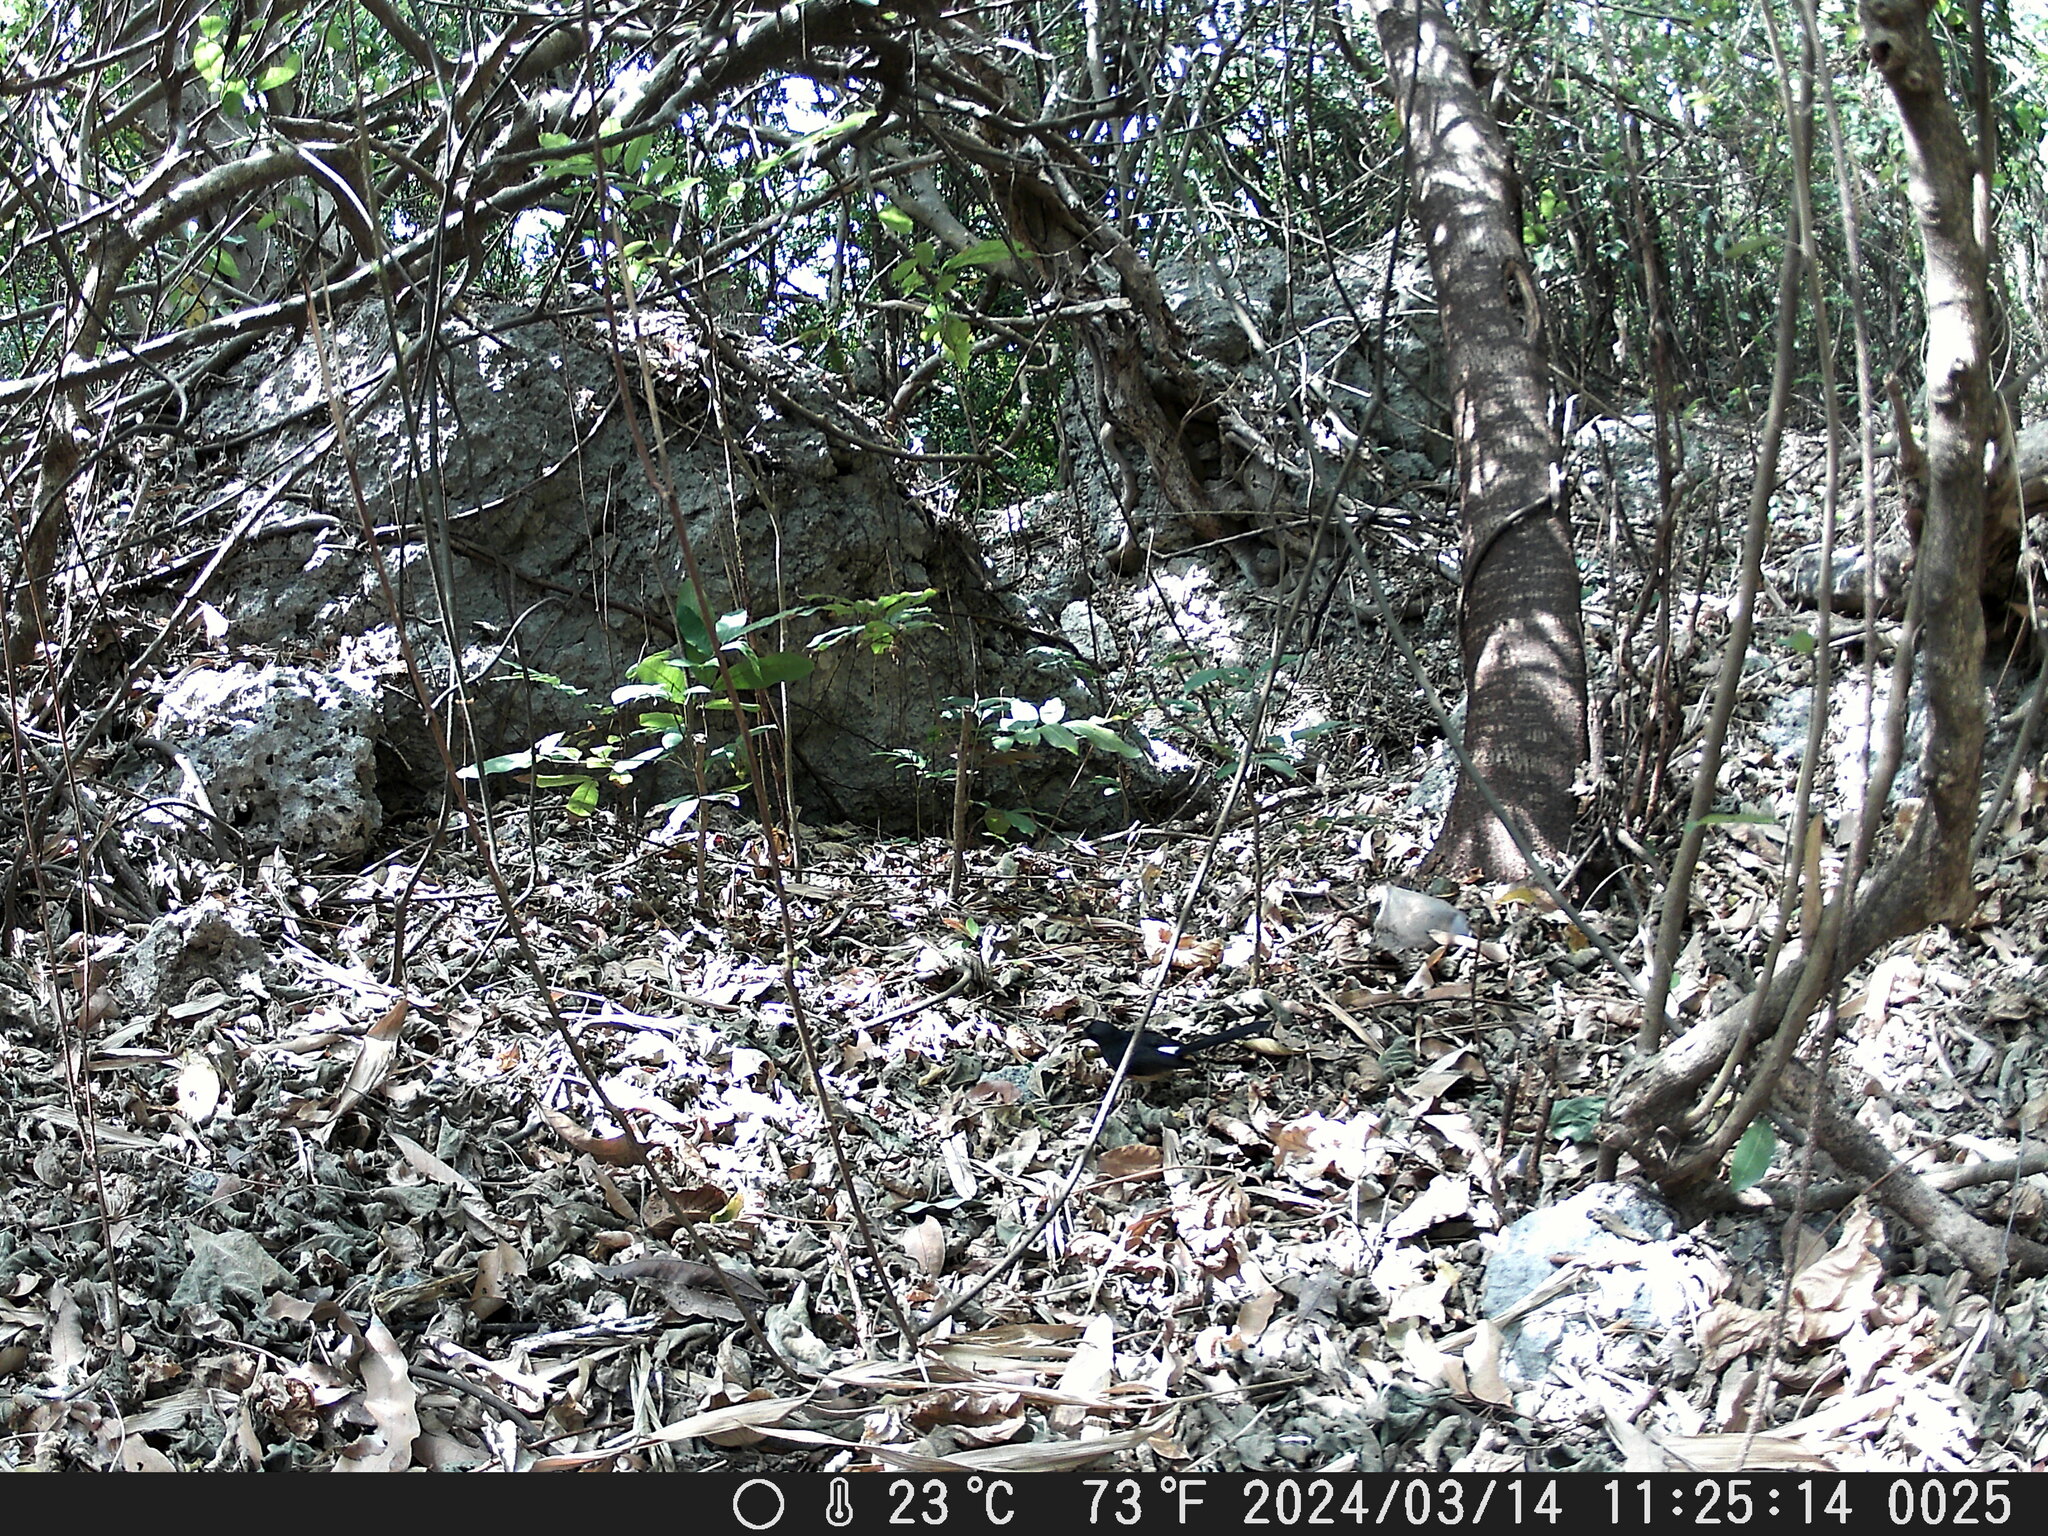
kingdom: Animalia
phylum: Chordata
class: Aves
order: Passeriformes
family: Muscicapidae
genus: Copsychus
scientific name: Copsychus malabaricus
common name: White-rumped shama
